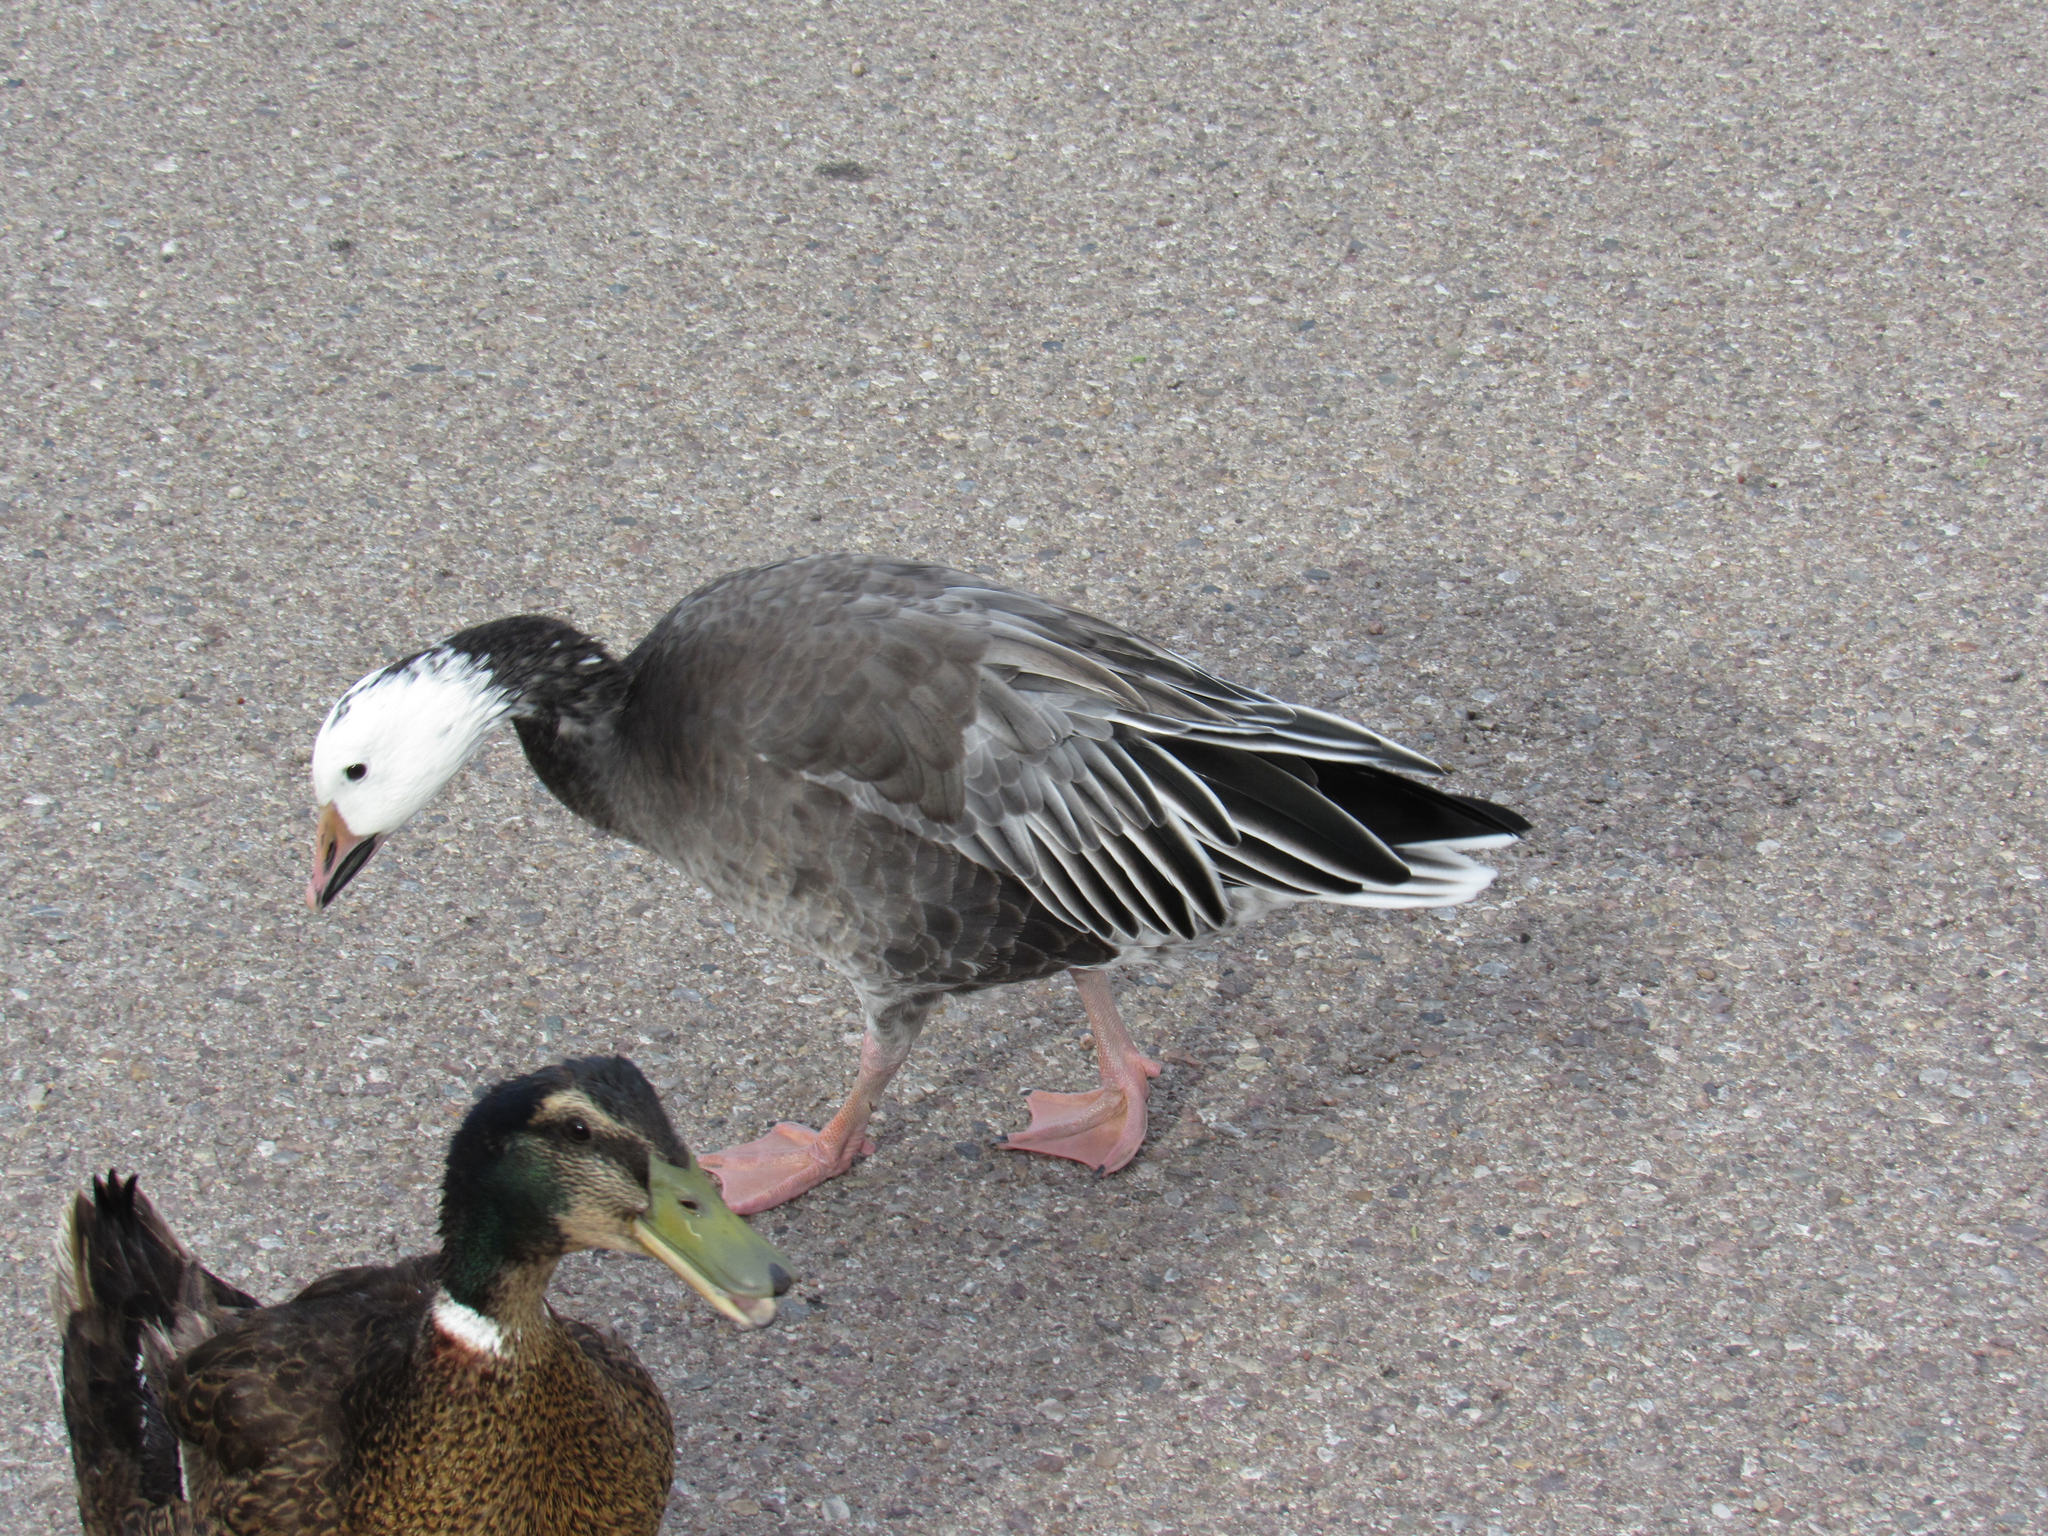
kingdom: Animalia
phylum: Chordata
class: Aves
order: Anseriformes
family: Anatidae
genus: Anser
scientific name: Anser caerulescens
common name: Snow goose
